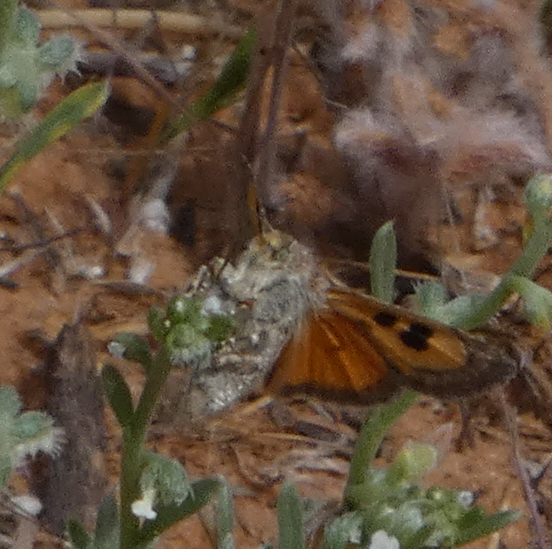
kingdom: Animalia
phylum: Arthropoda
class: Insecta
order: Lepidoptera
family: Noctuidae
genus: Schinia
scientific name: Schinia aurantiaca
